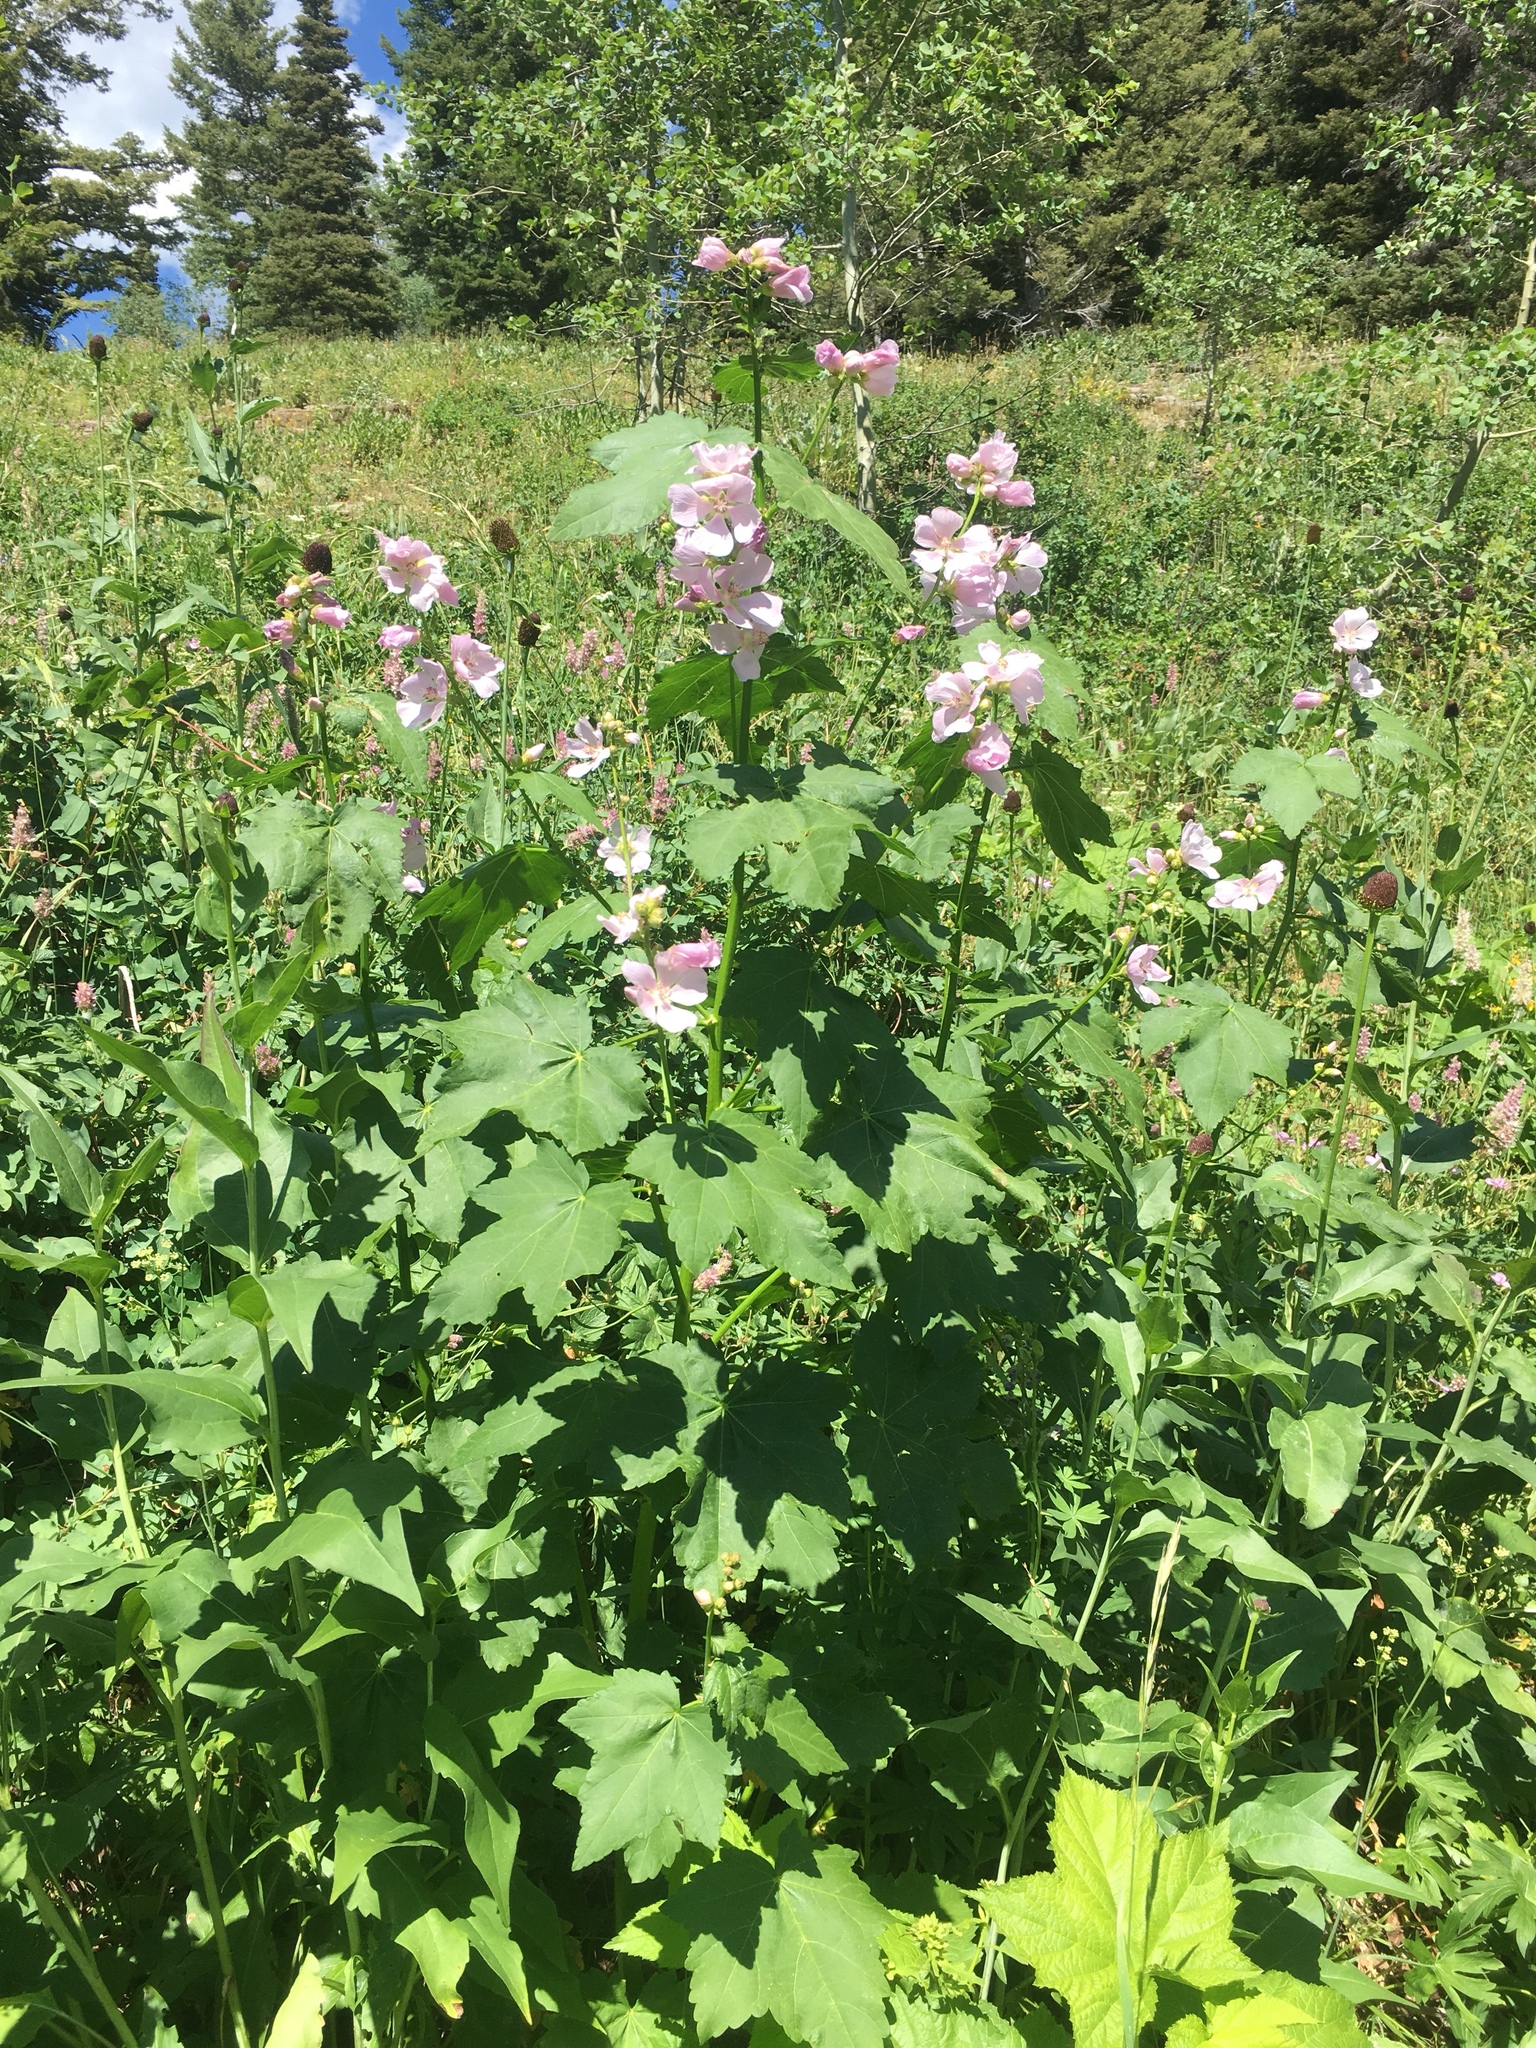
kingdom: Plantae
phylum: Tracheophyta
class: Magnoliopsida
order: Malvales
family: Malvaceae
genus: Iliamna
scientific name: Iliamna rivularis
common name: Wild hollyhock
